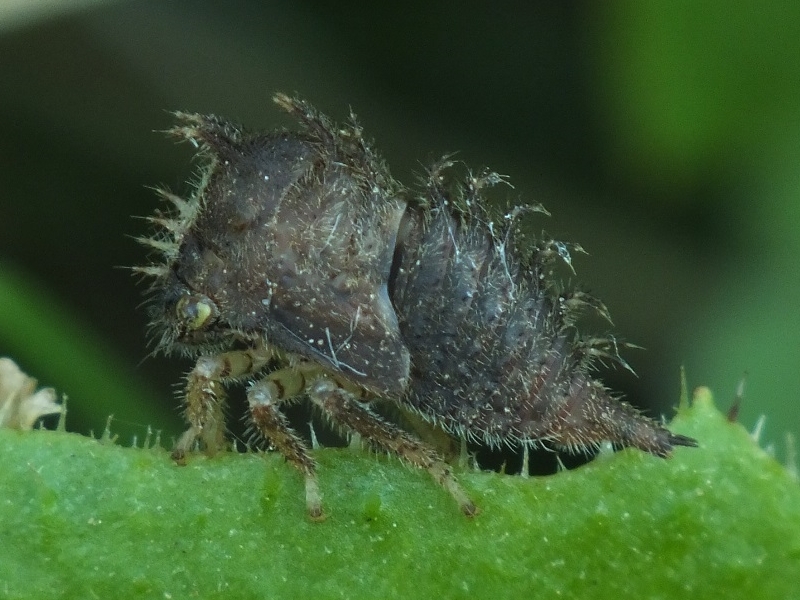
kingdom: Animalia
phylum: Arthropoda
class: Insecta
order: Hemiptera
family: Membracidae
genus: Stictocephala
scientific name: Stictocephala bisonia
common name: American buffalo treehopper
